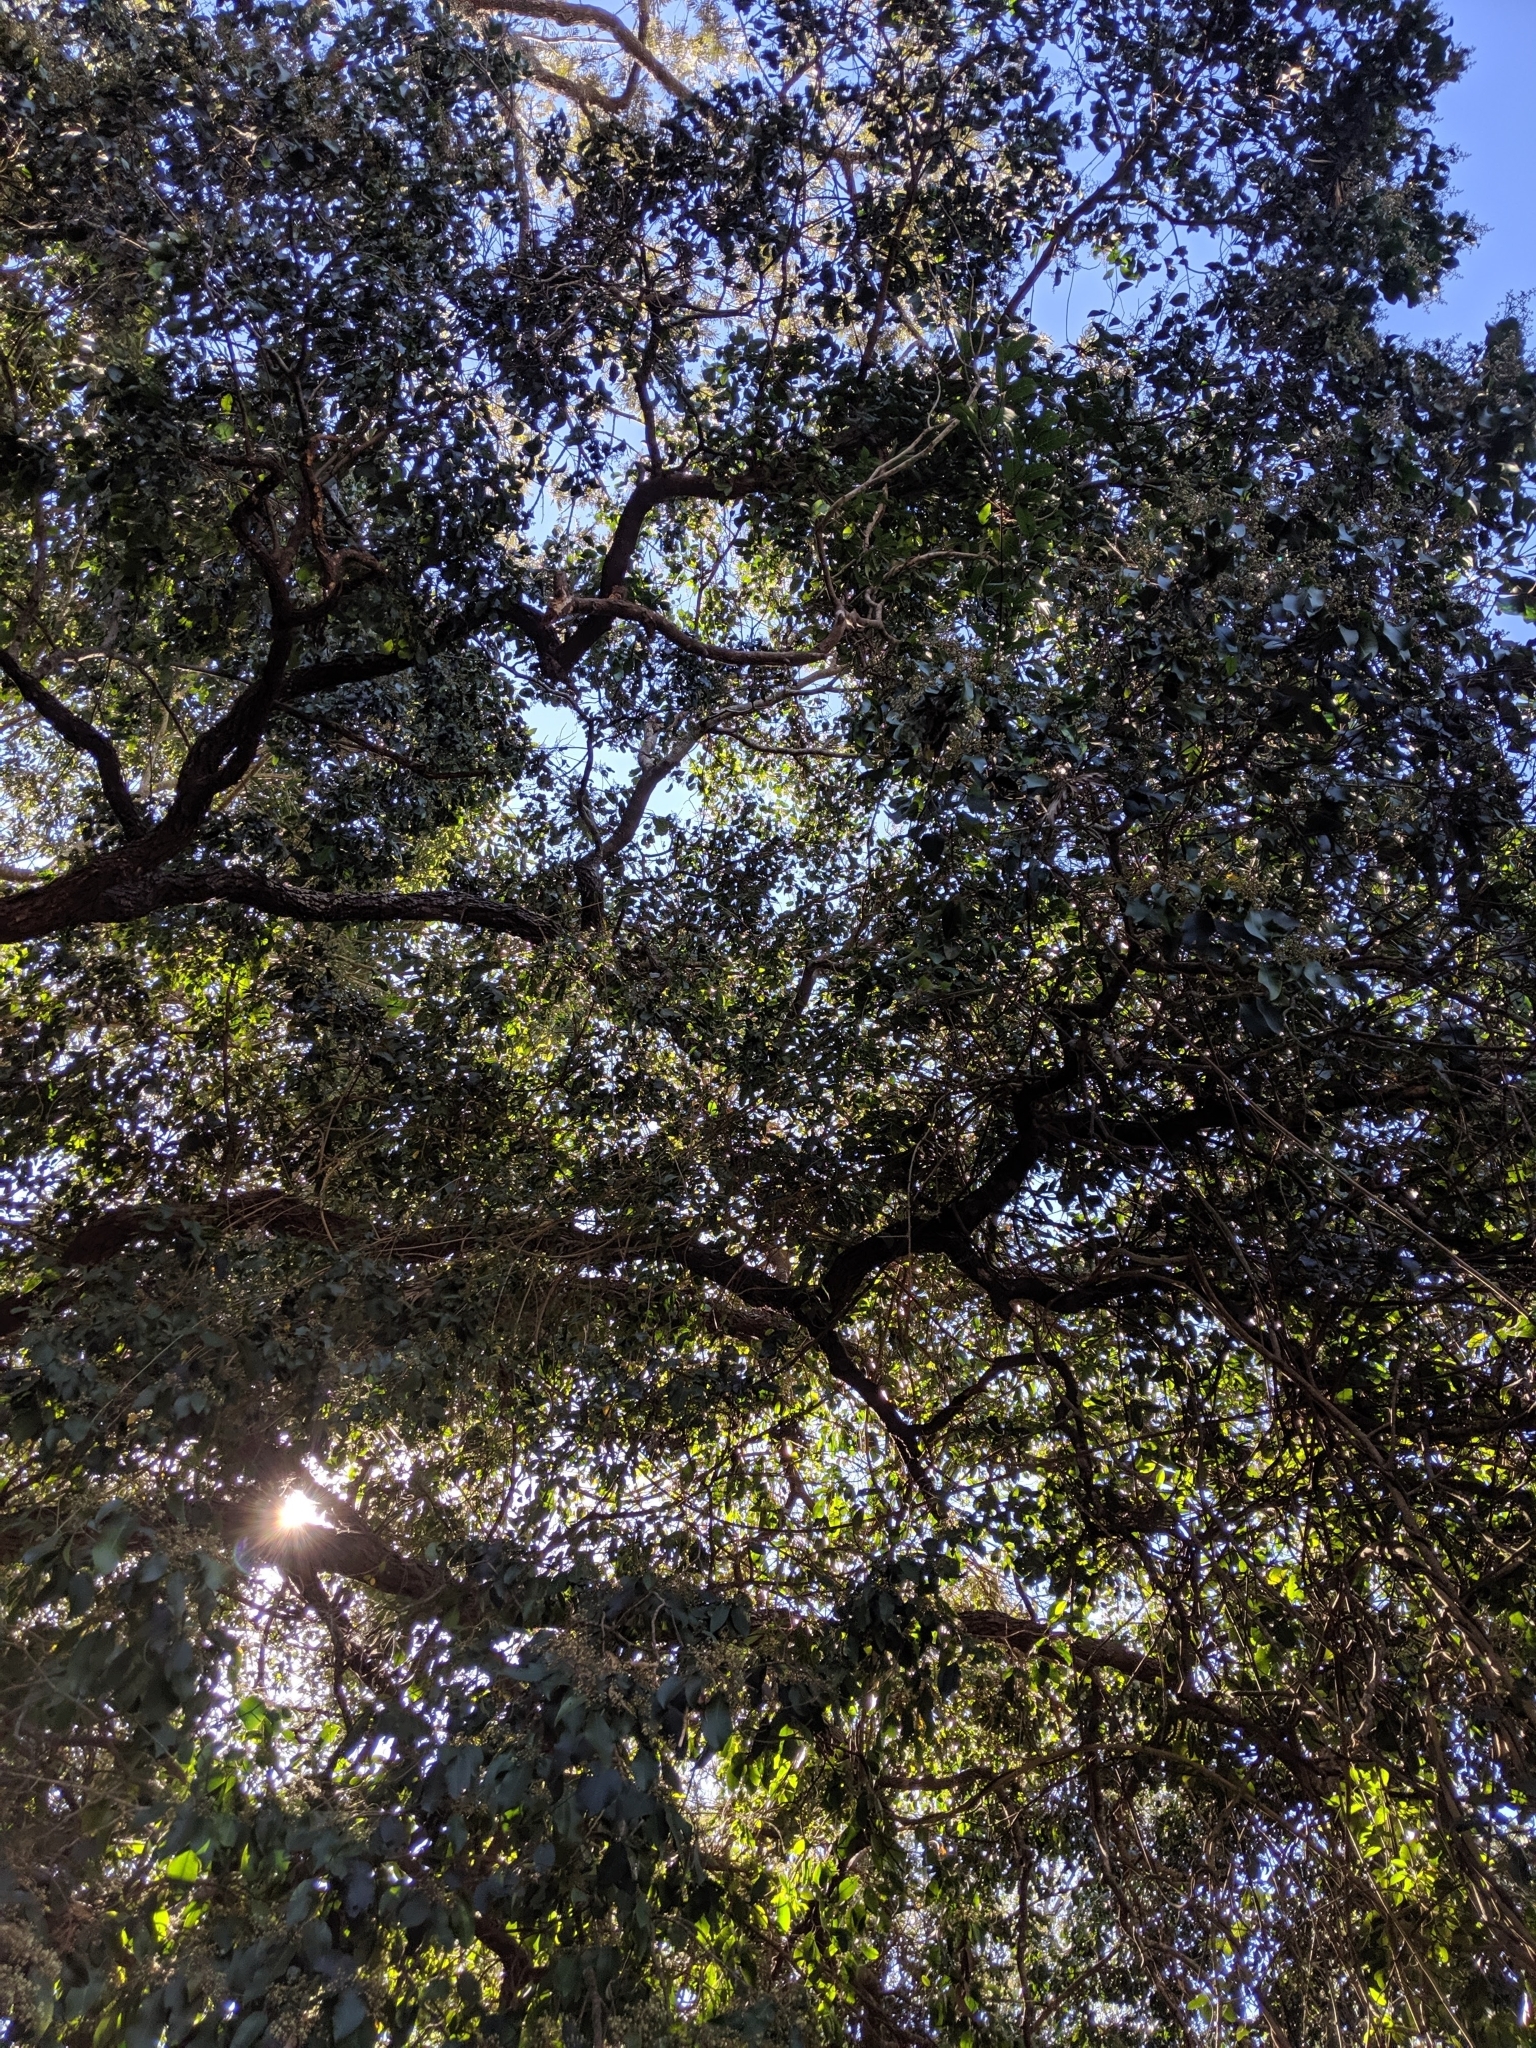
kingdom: Plantae
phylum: Tracheophyta
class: Magnoliopsida
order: Sapindales
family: Rutaceae
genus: Geijera
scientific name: Geijera salicifolia
